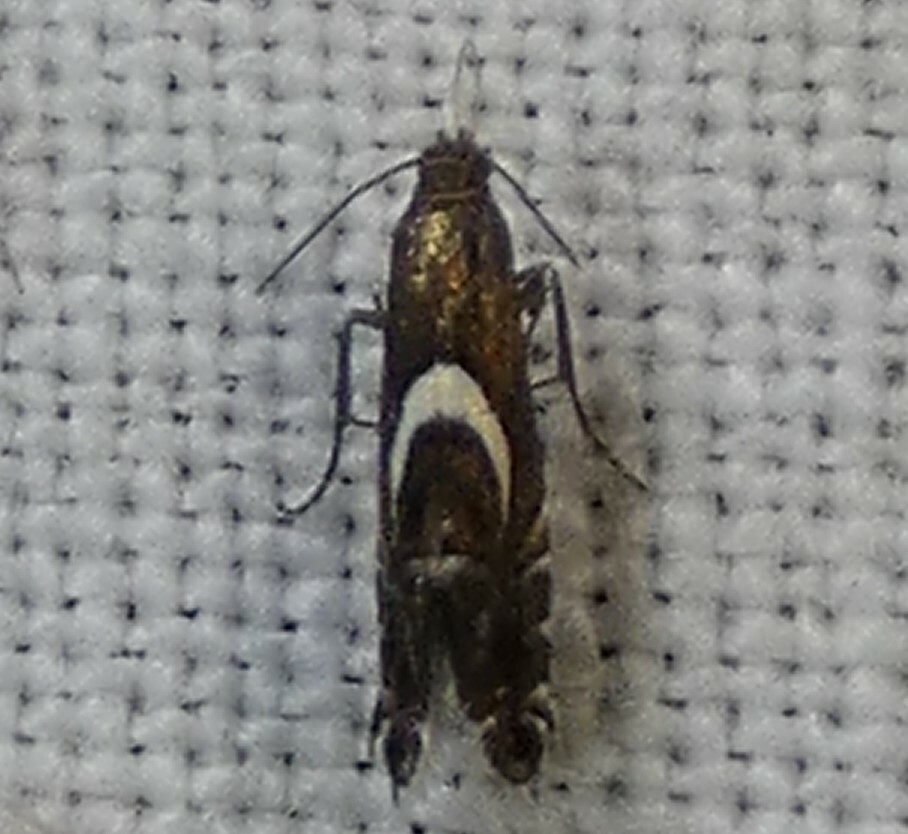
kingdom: Animalia
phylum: Arthropoda
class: Insecta
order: Lepidoptera
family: Glyphipterigidae
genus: Glyphipterix
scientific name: Glyphipterix Diploschizia impigritella
